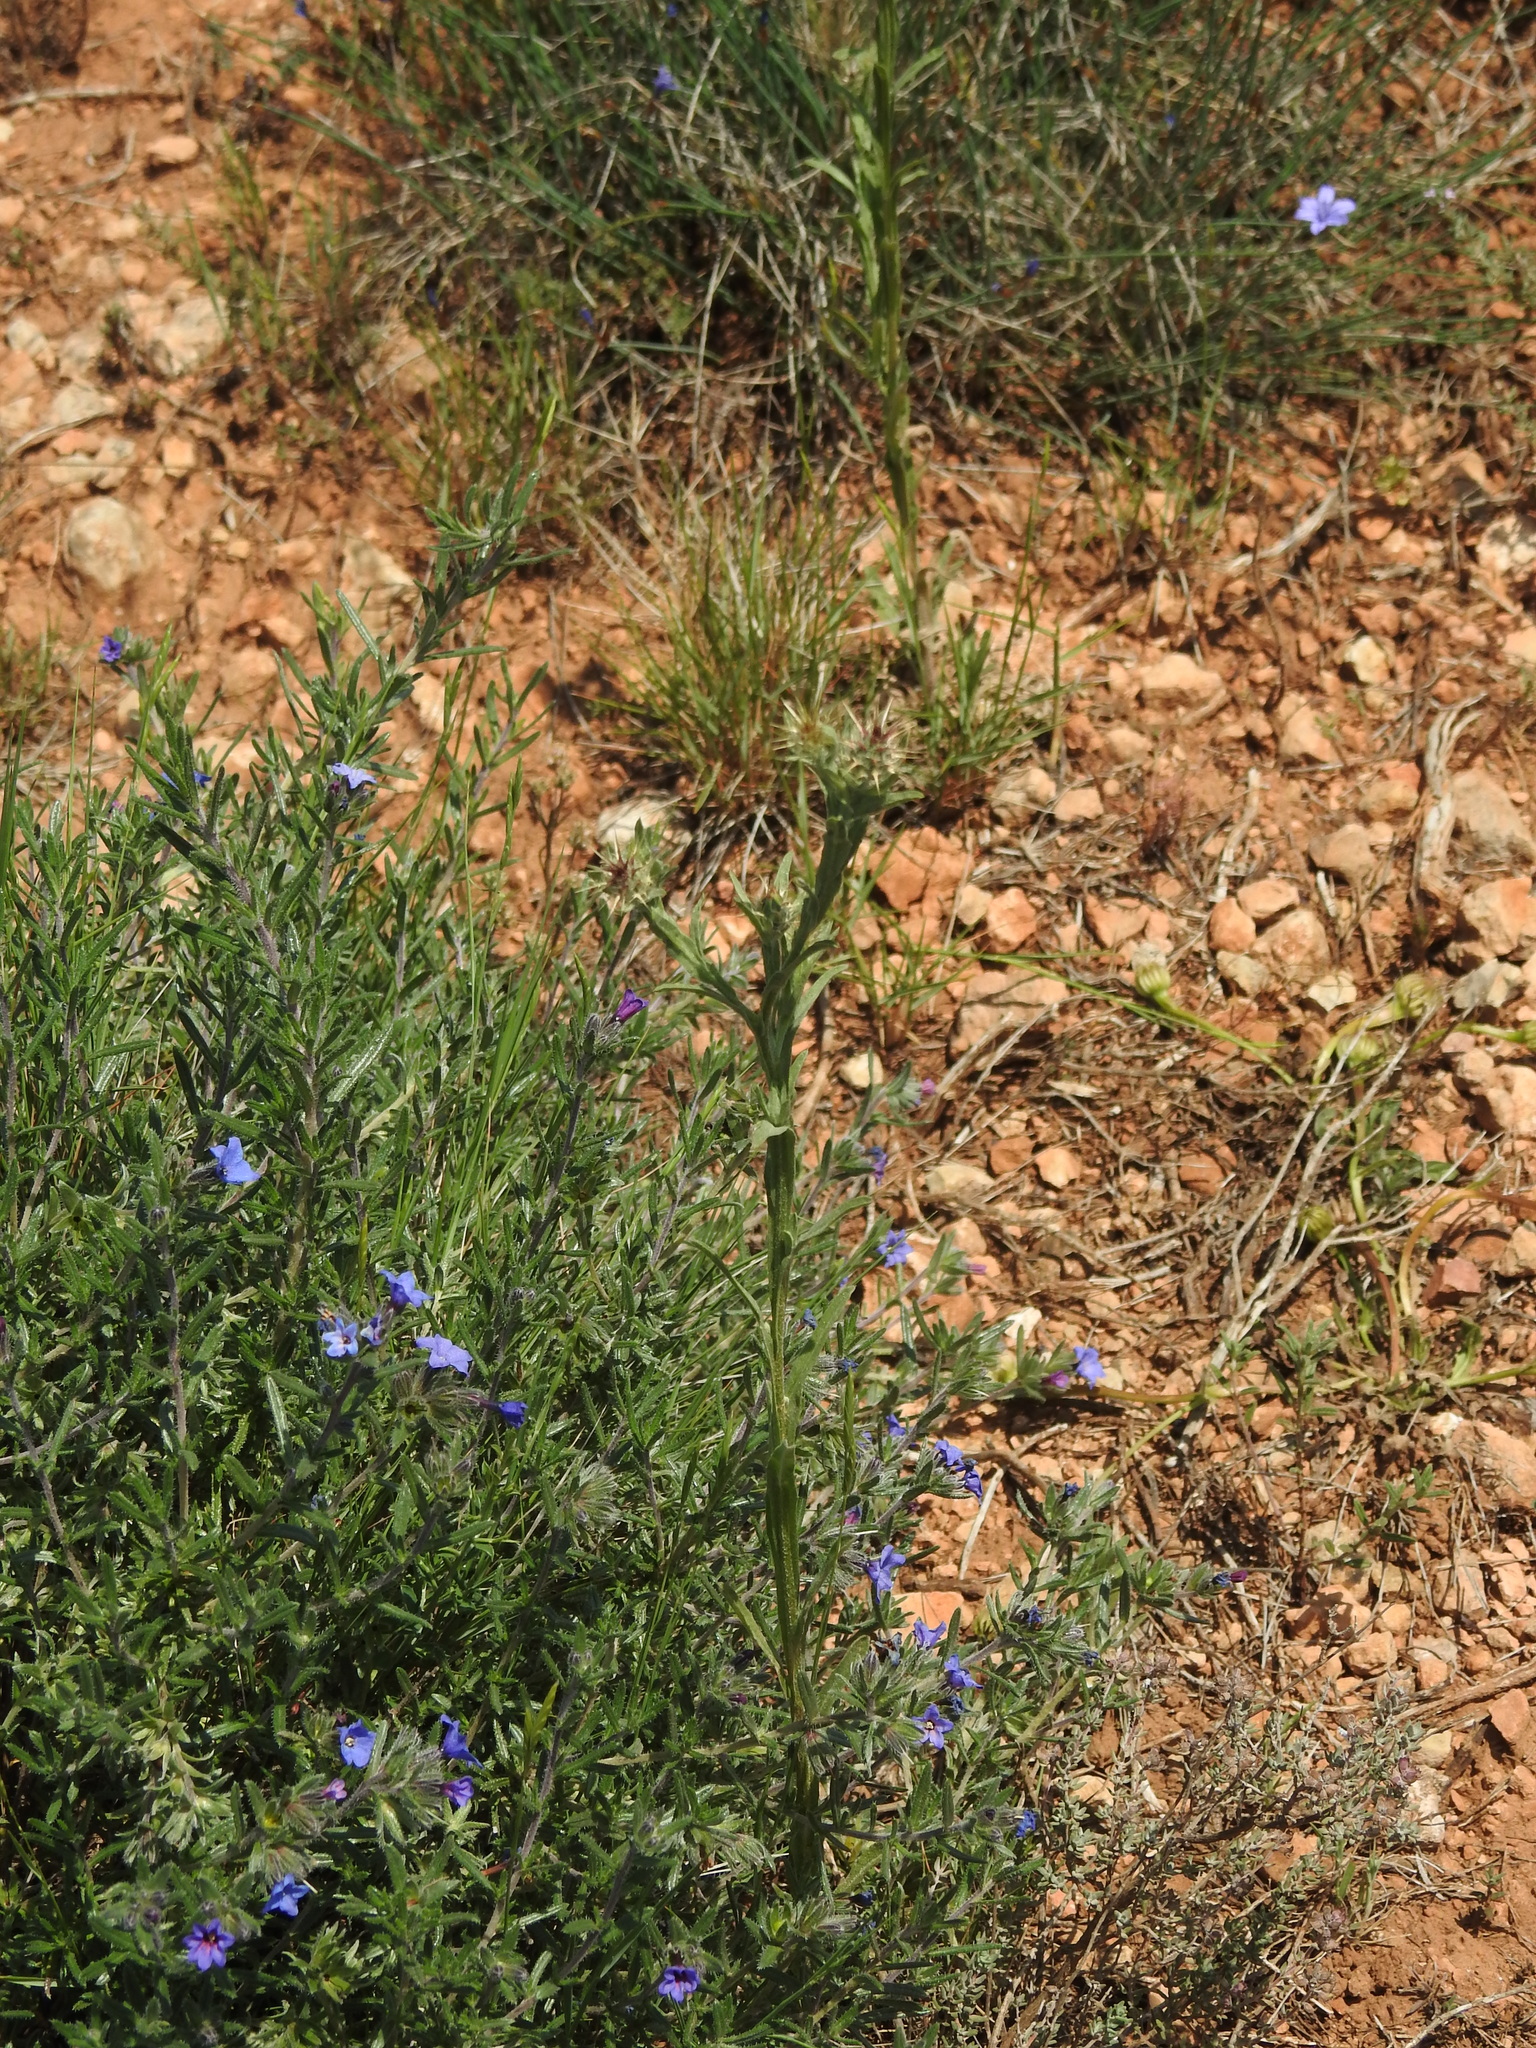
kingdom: Plantae
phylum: Tracheophyta
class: Magnoliopsida
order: Asterales
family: Asteraceae
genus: Centaurea
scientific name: Centaurea melitensis
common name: Maltese star-thistle
